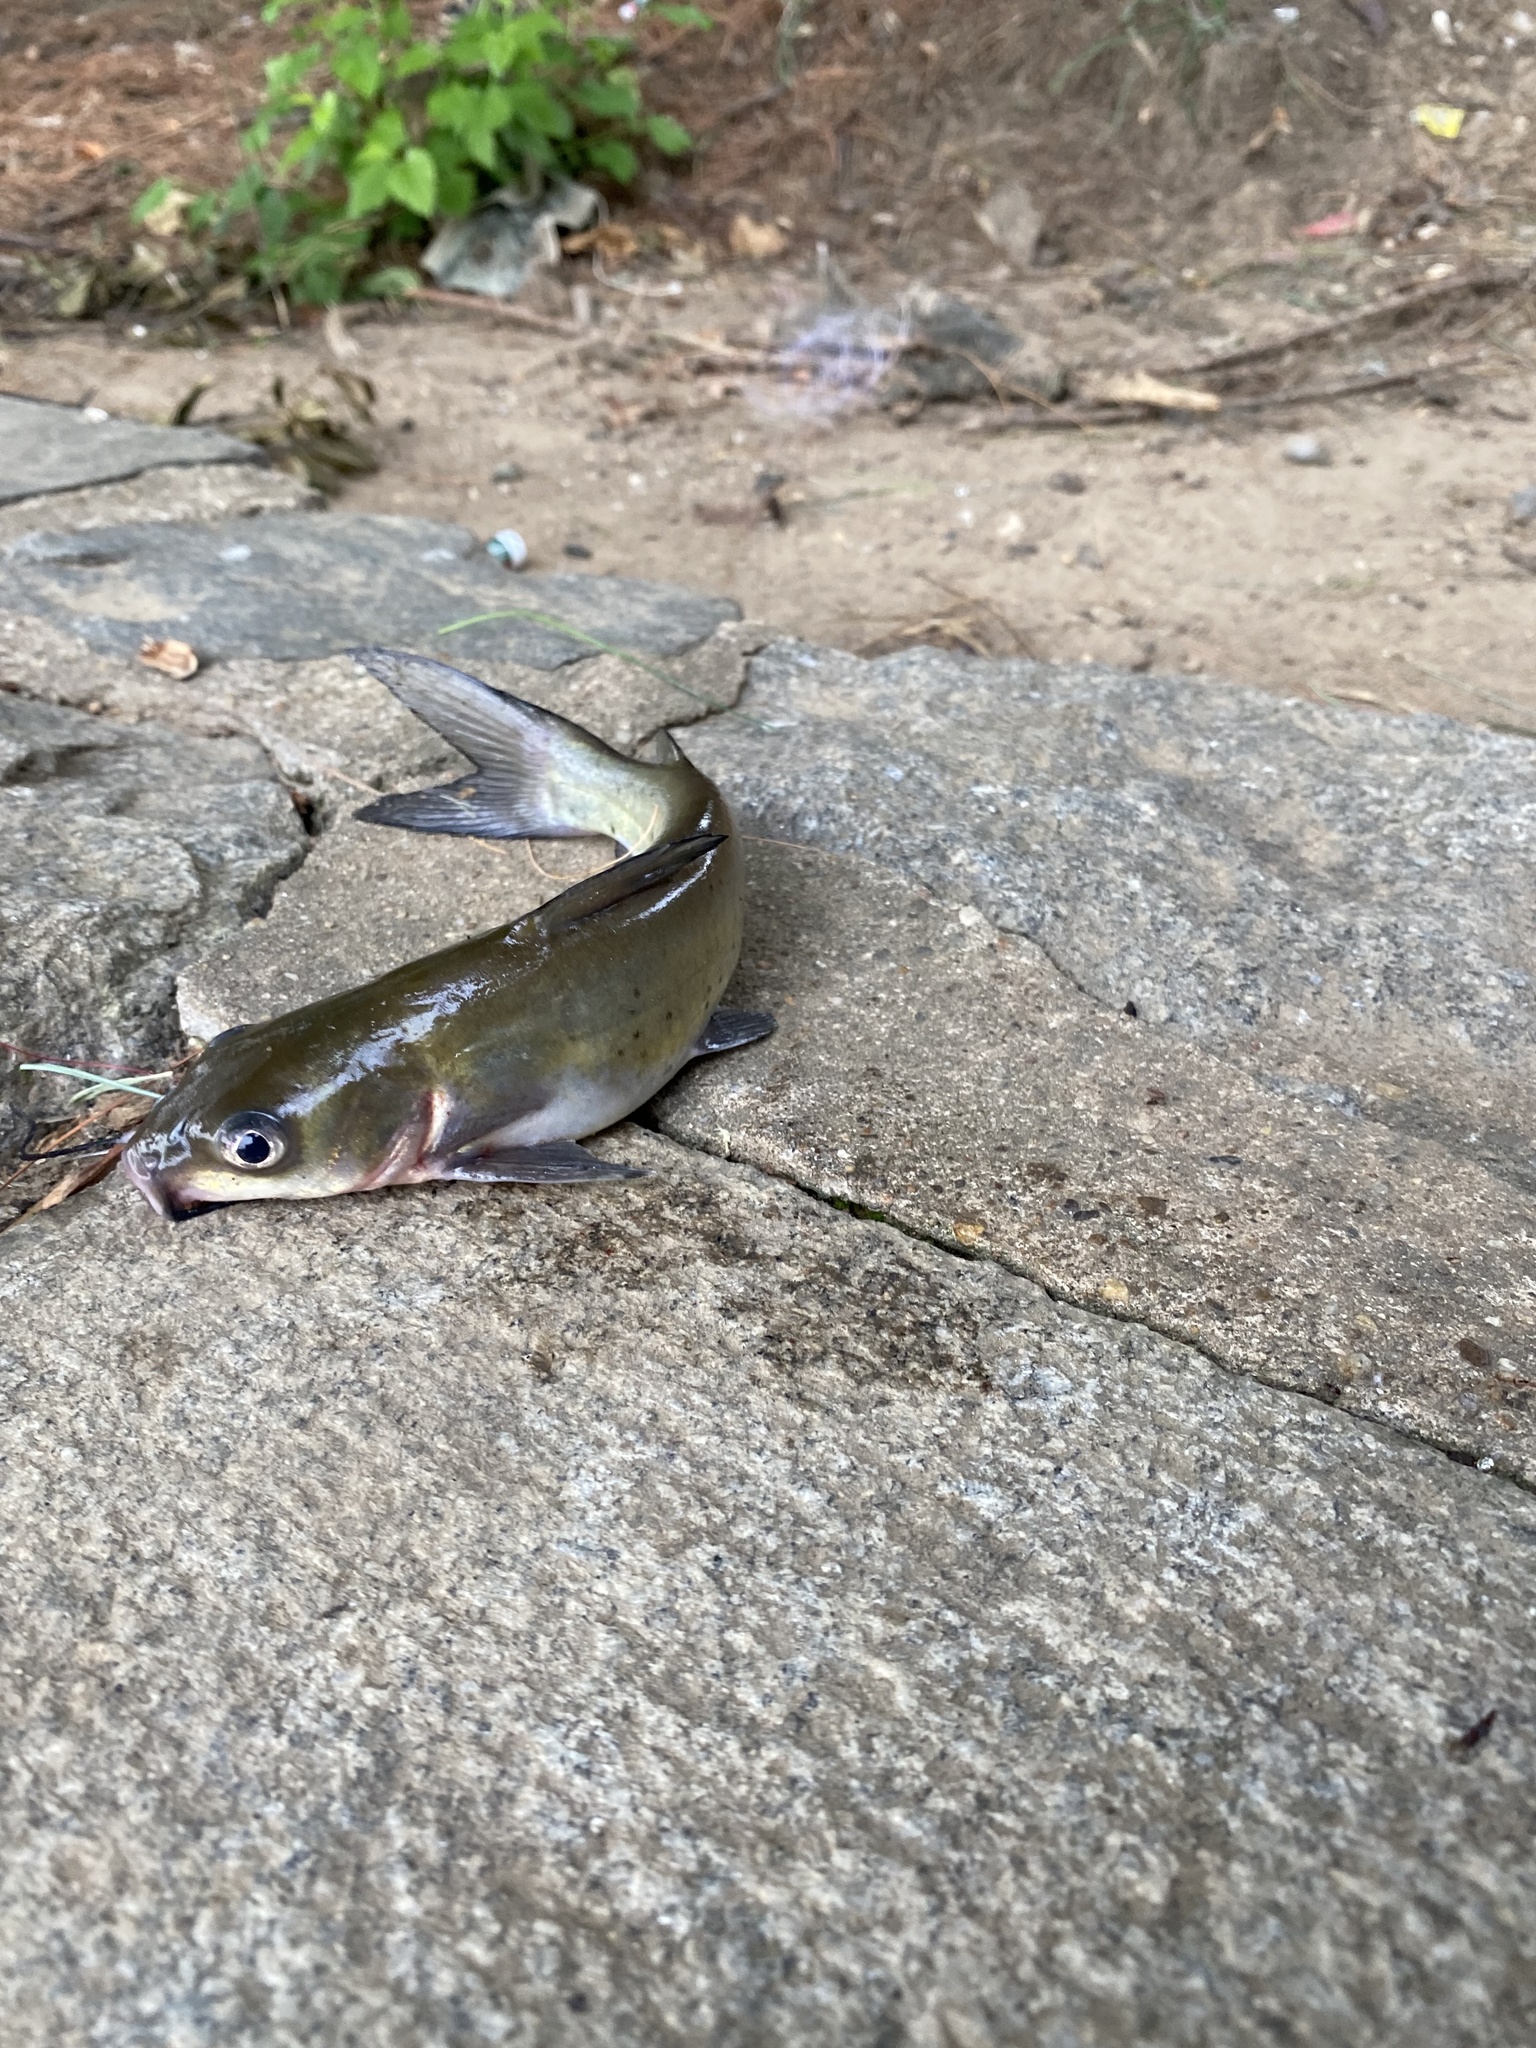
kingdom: Animalia
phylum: Chordata
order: Siluriformes
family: Ictaluridae
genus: Ictalurus
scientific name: Ictalurus punctatus
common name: Channel catfish
